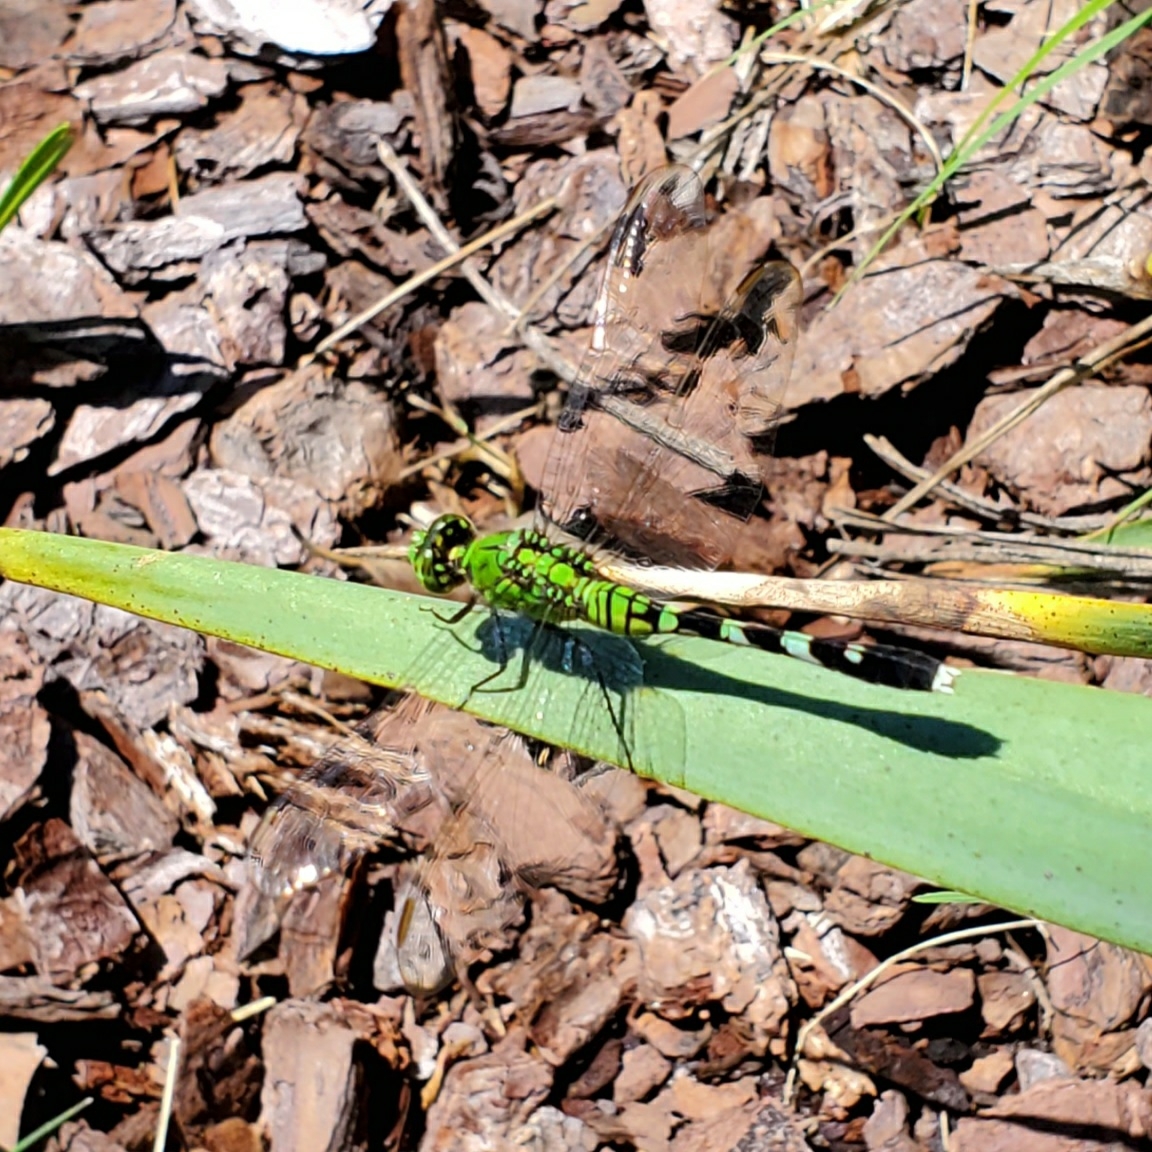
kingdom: Animalia
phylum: Arthropoda
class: Insecta
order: Odonata
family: Libellulidae
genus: Erythemis
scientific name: Erythemis simplicicollis
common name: Eastern pondhawk
